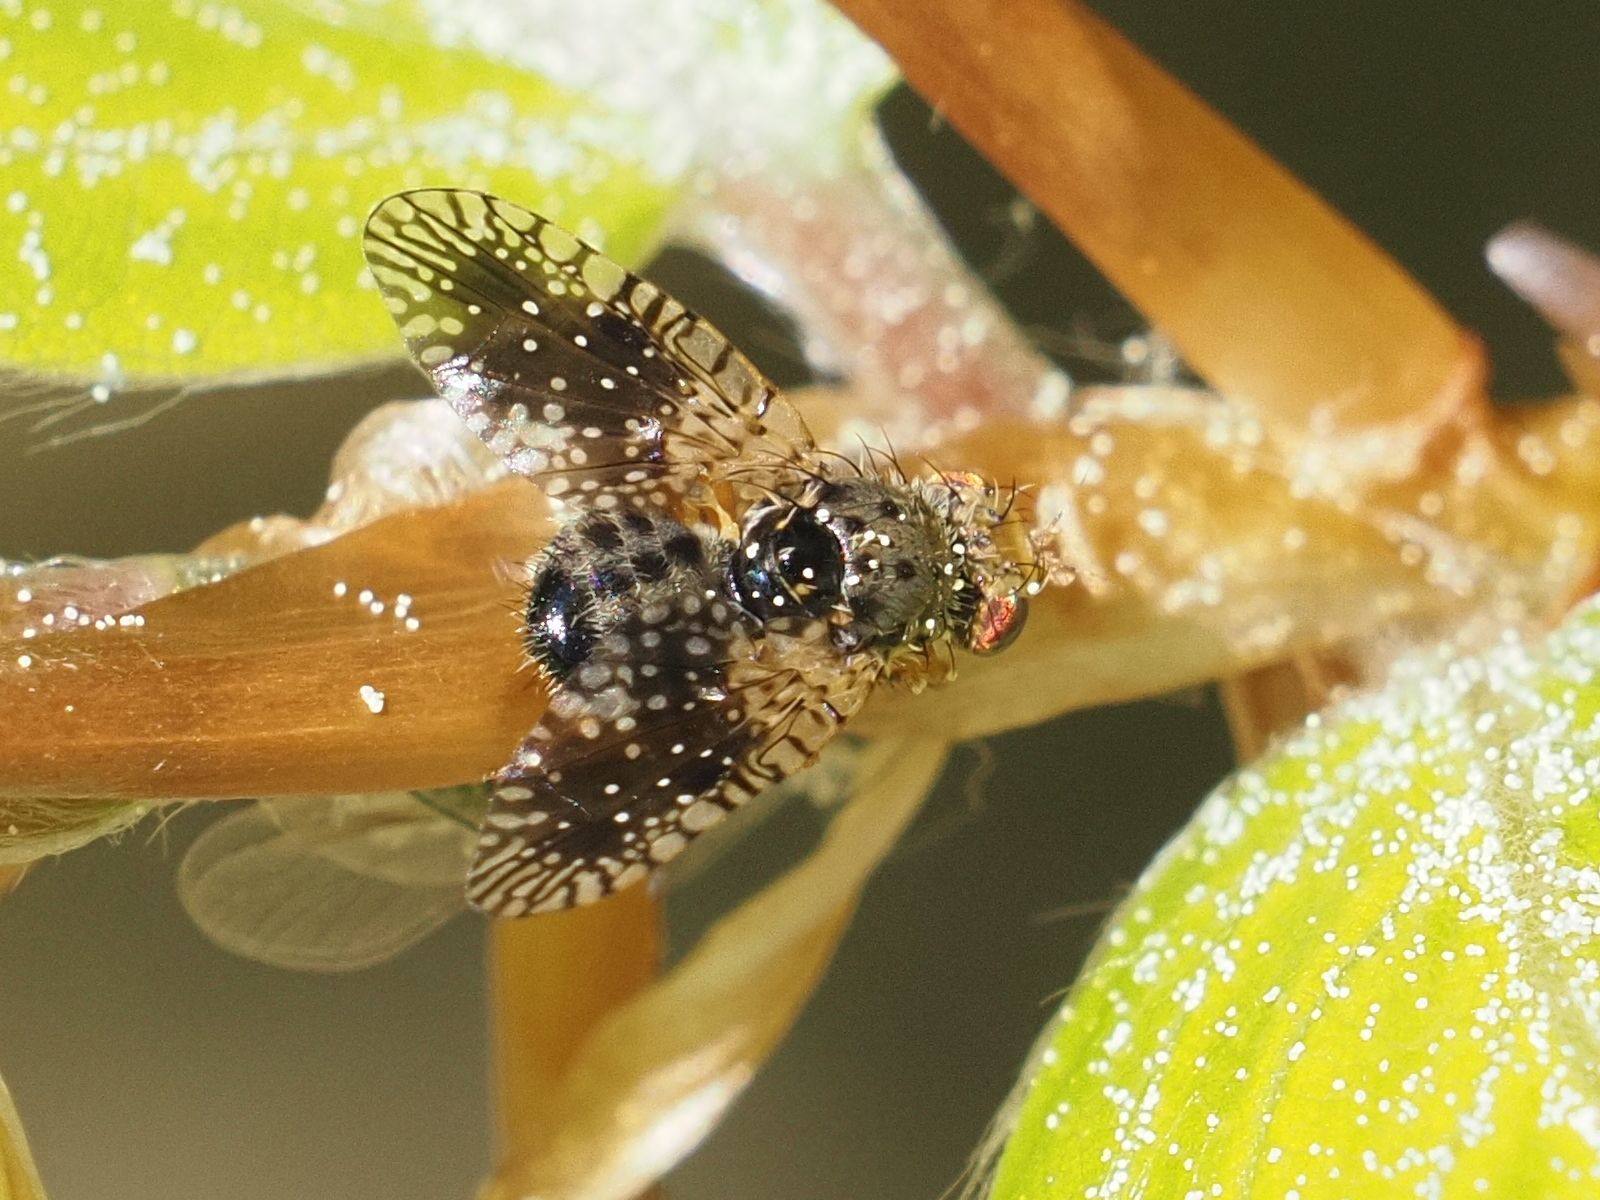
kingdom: Animalia
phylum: Arthropoda
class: Insecta
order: Diptera
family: Tephritidae
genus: Noeeta
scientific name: Noeeta pupillata
